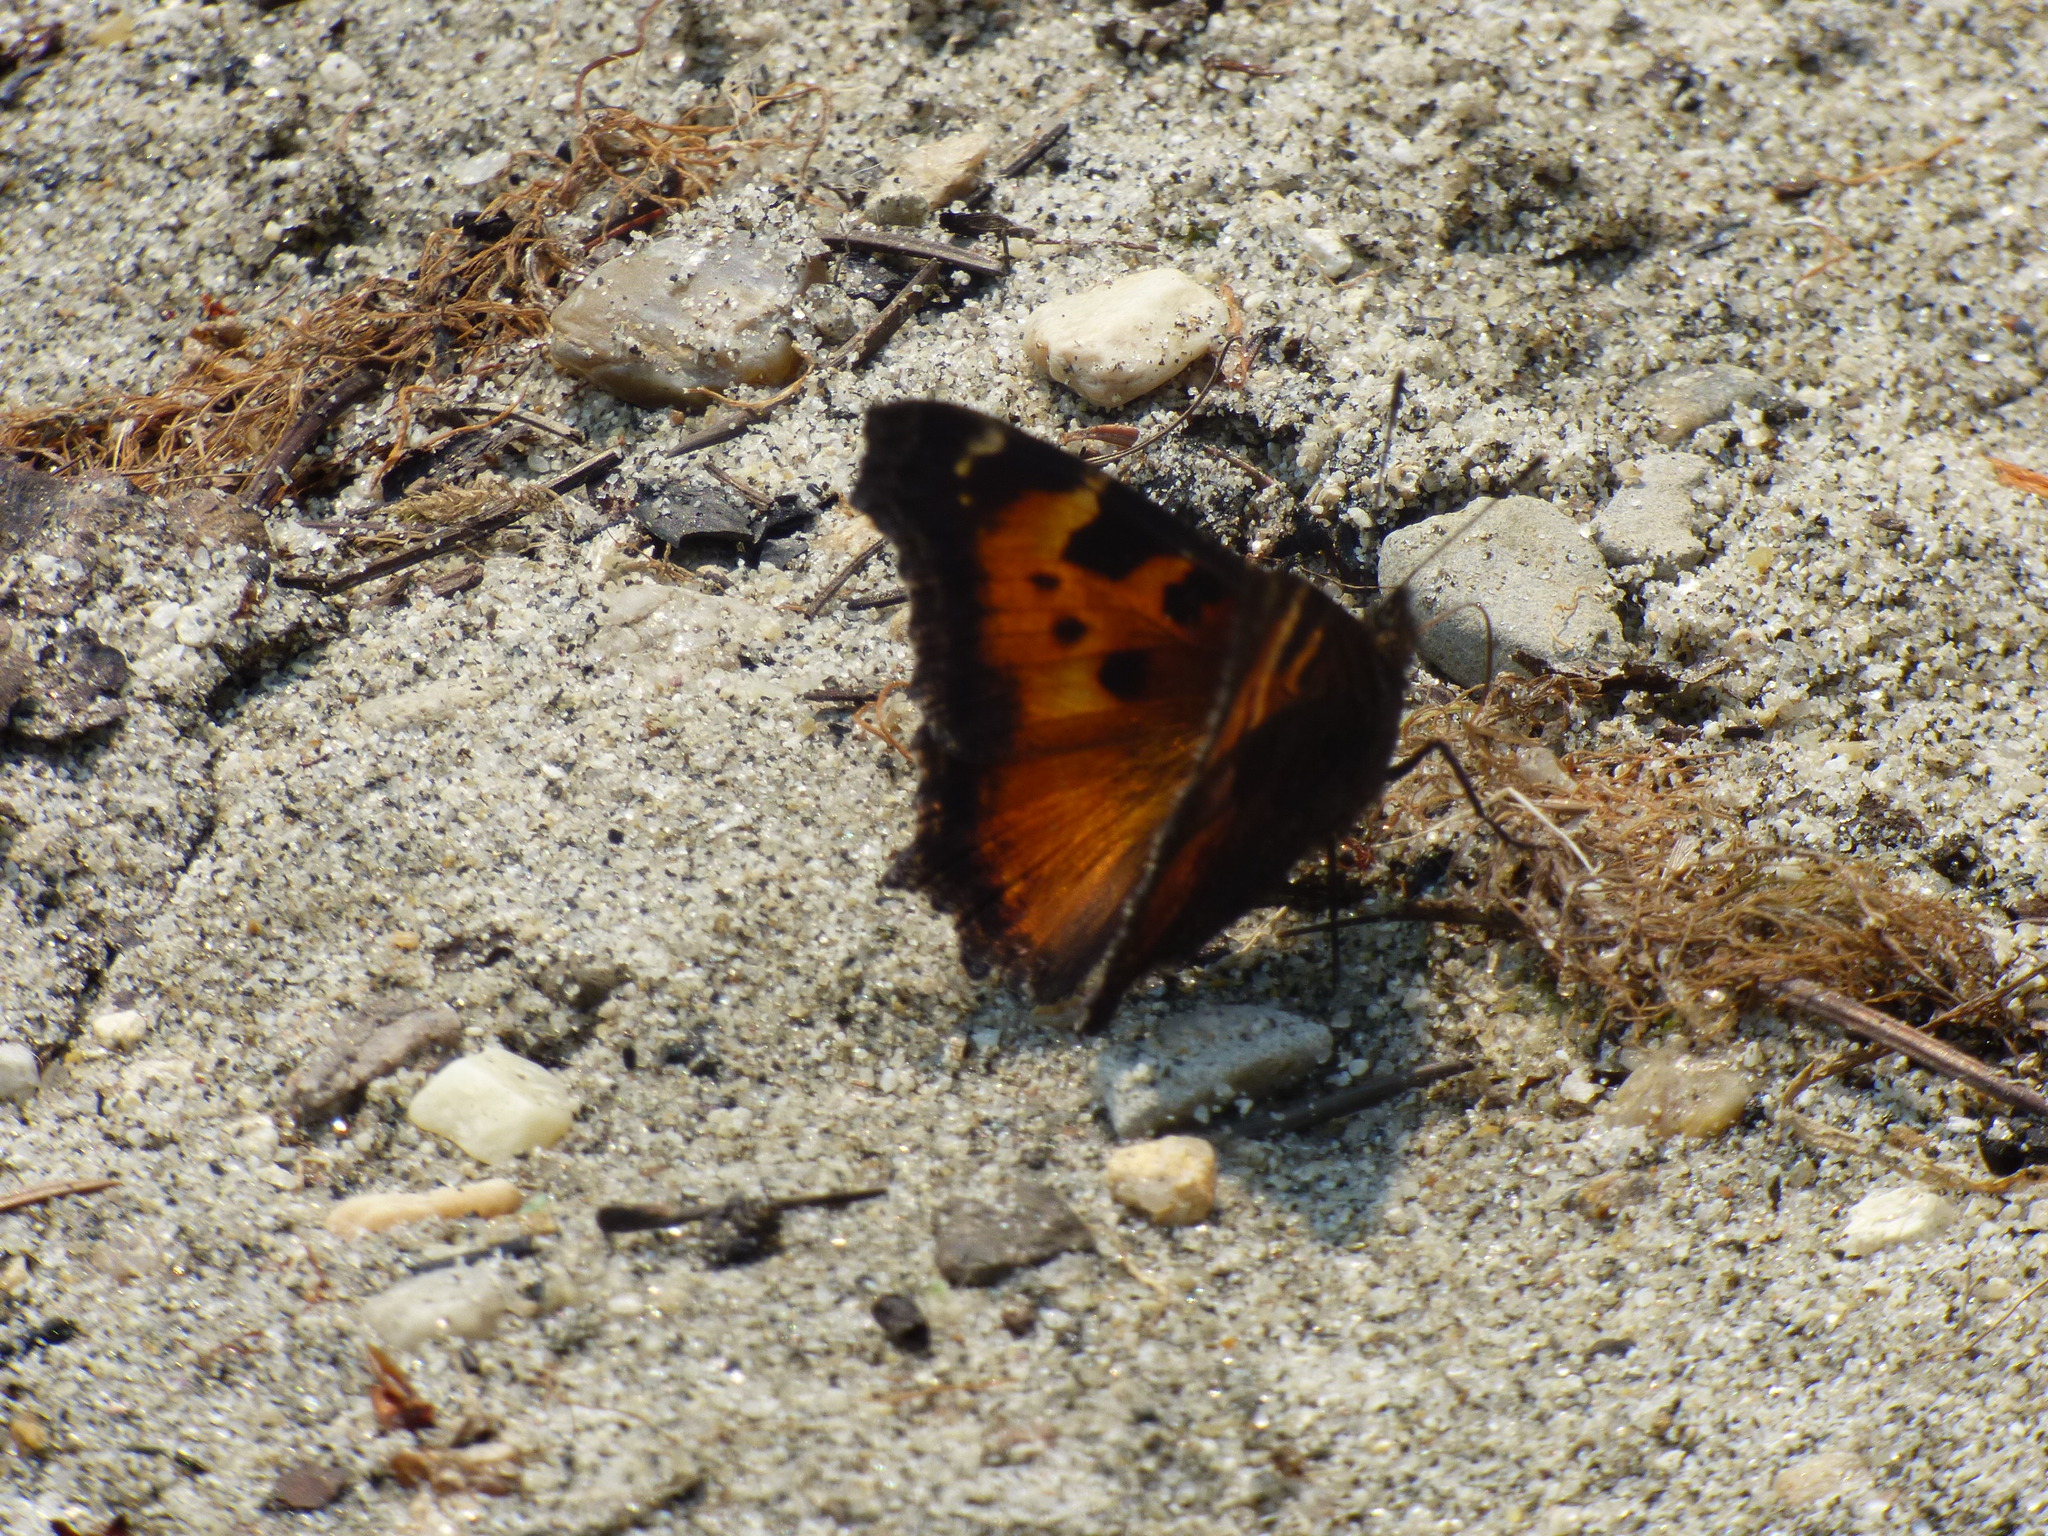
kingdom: Animalia
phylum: Arthropoda
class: Insecta
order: Lepidoptera
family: Nymphalidae
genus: Nymphalis
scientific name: Nymphalis californica
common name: California tortoiseshell
